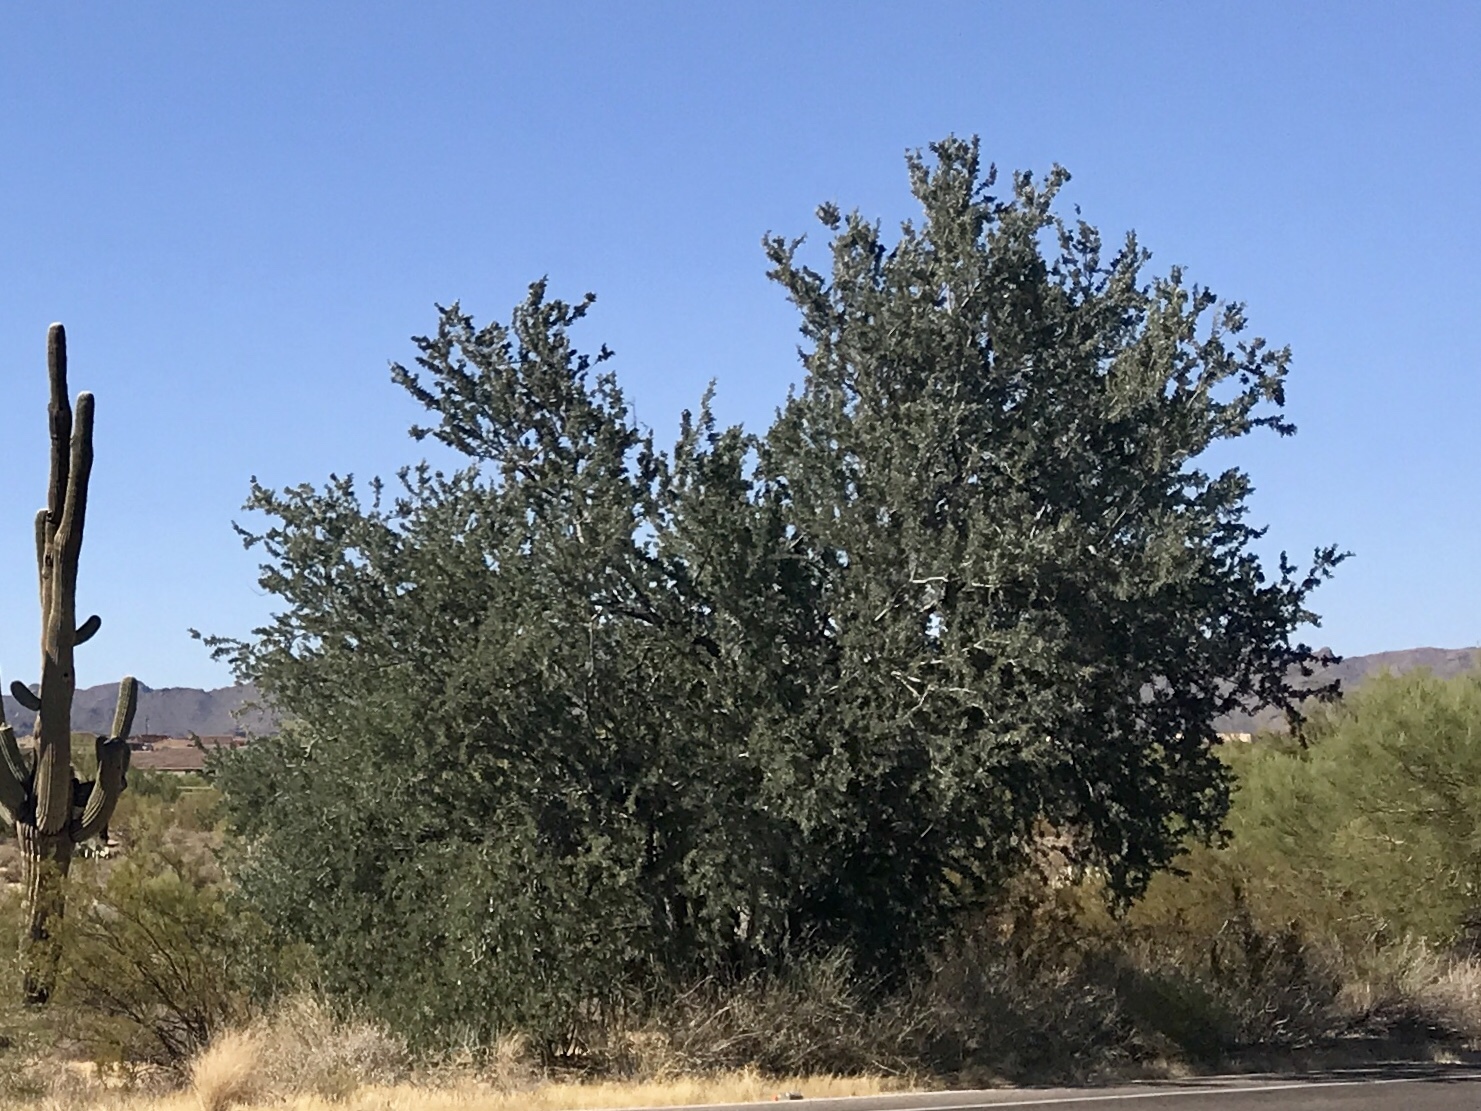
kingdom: Plantae
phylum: Tracheophyta
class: Magnoliopsida
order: Fabales
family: Fabaceae
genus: Olneya
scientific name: Olneya tesota
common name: Desert ironwood
